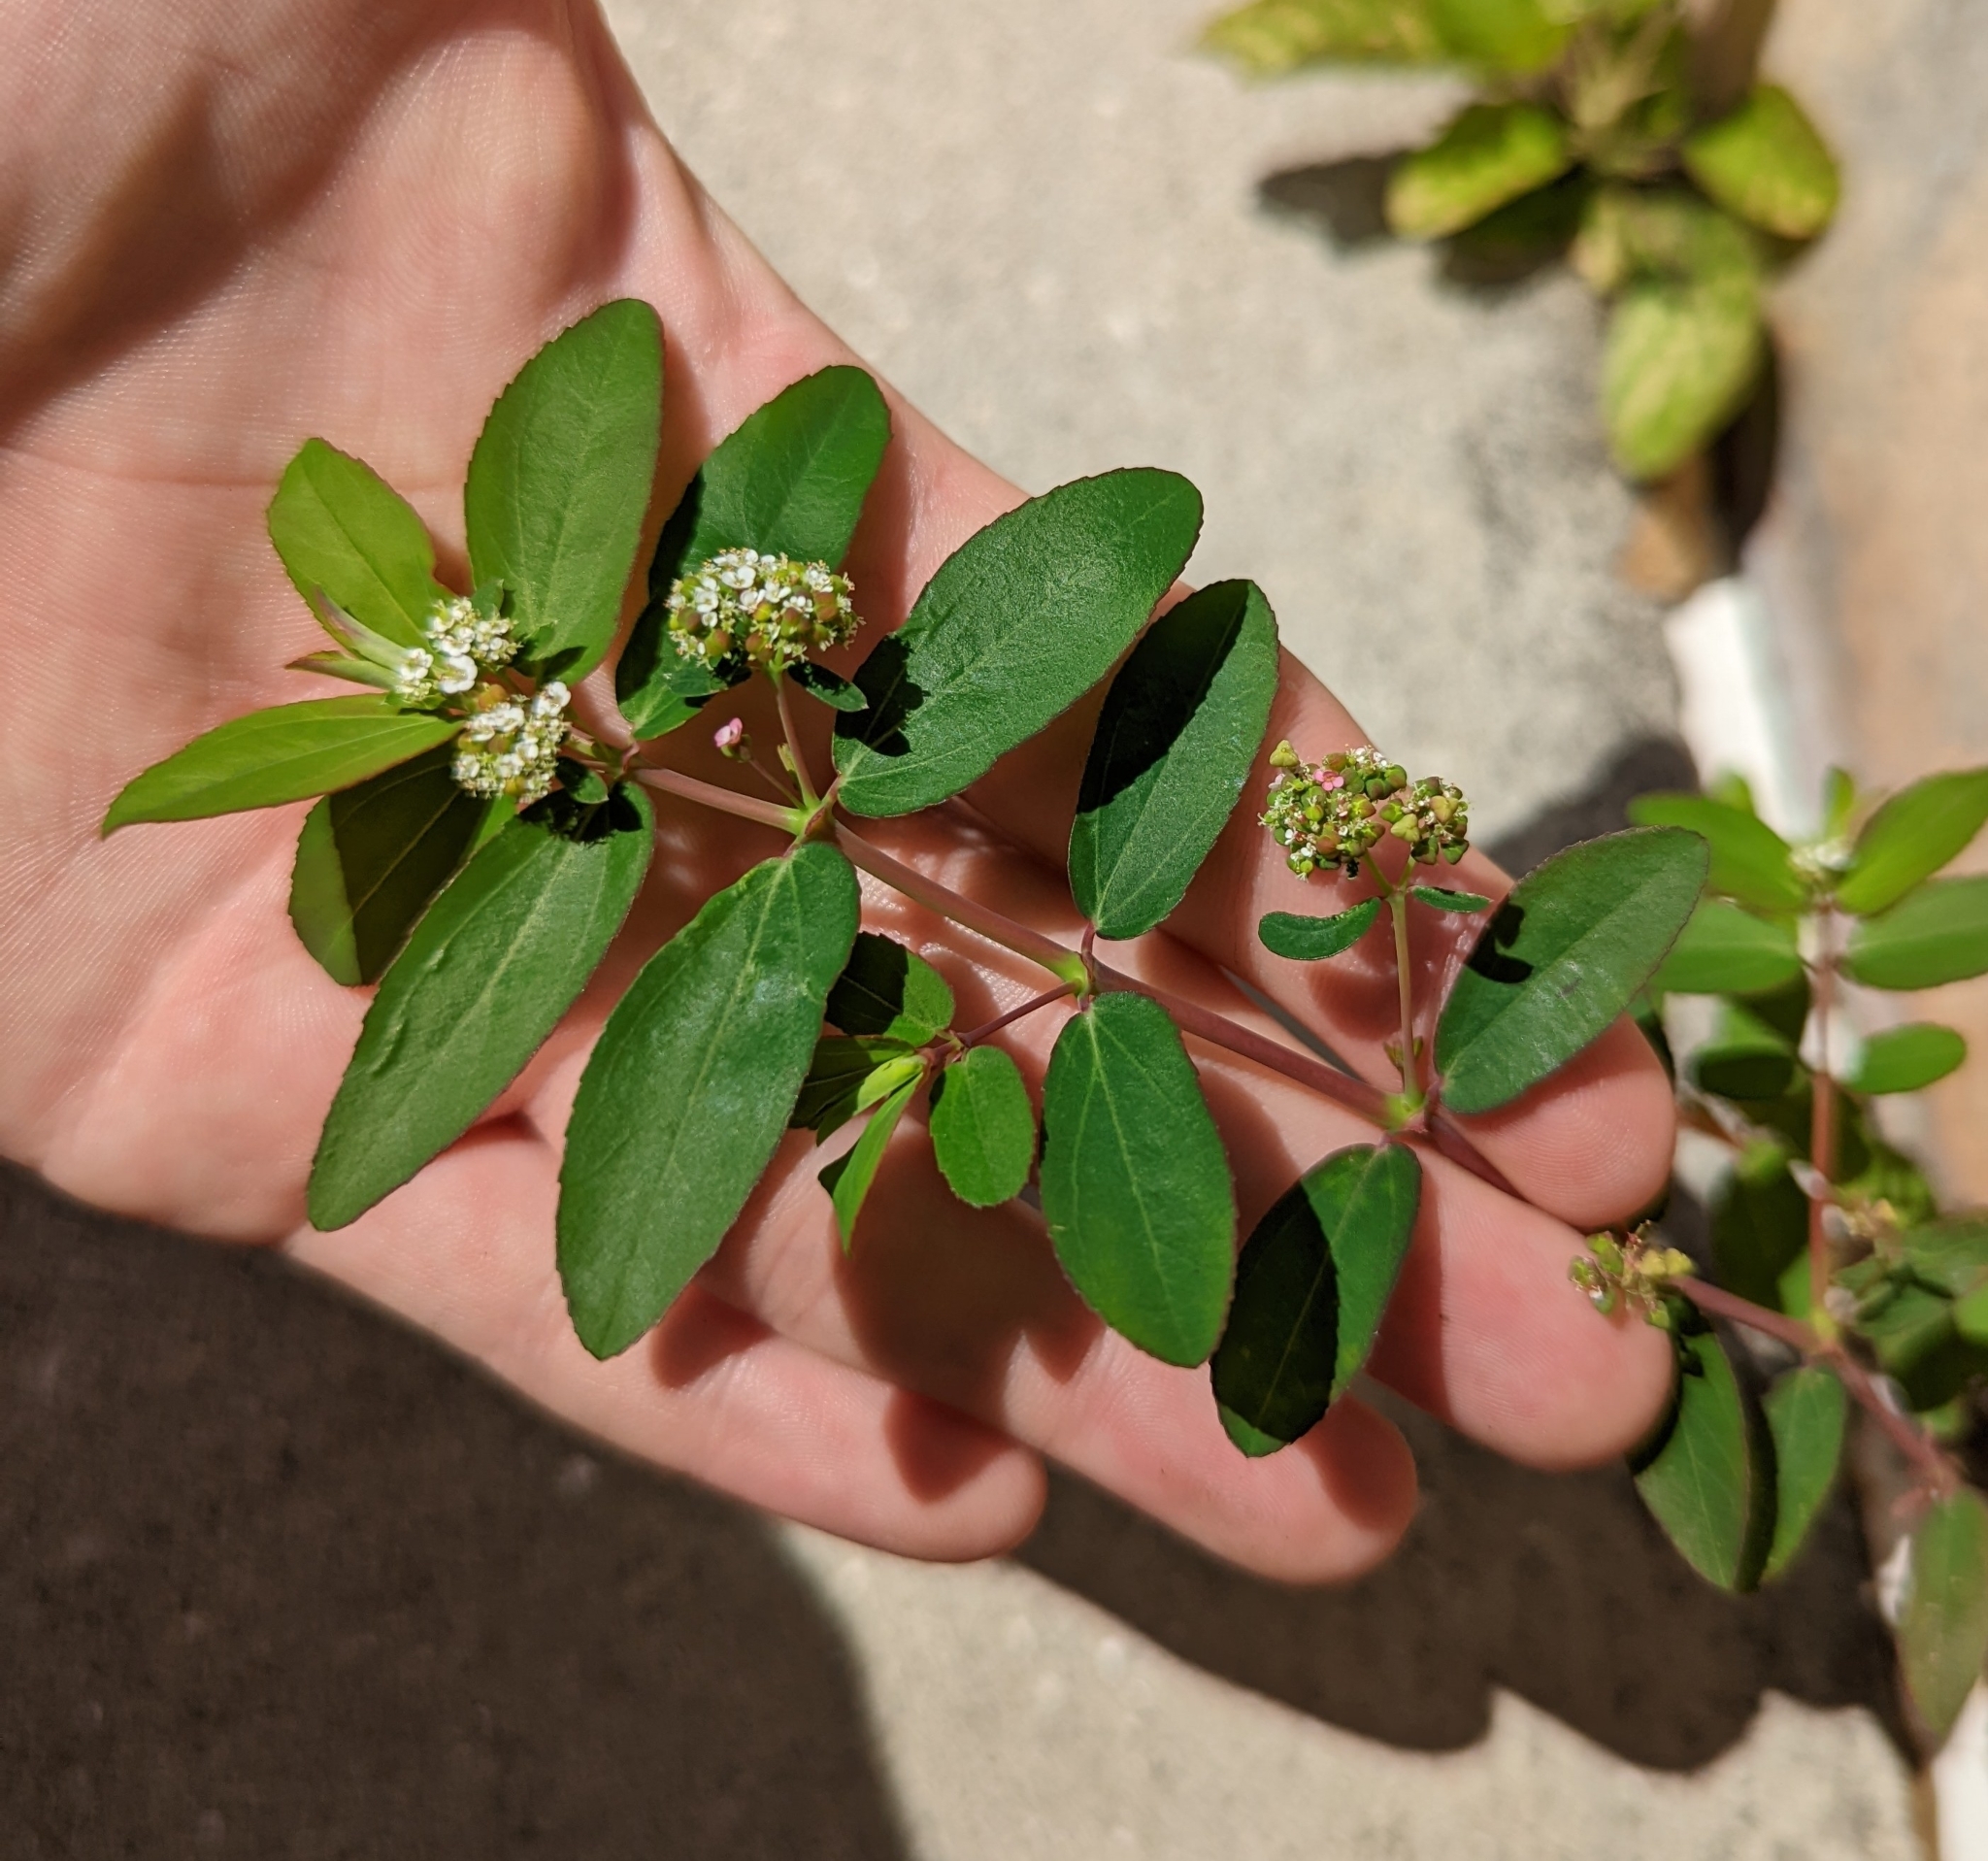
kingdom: Plantae
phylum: Tracheophyta
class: Magnoliopsida
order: Malpighiales
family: Euphorbiaceae
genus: Euphorbia
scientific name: Euphorbia hypericifolia
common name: Graceful sandmat
